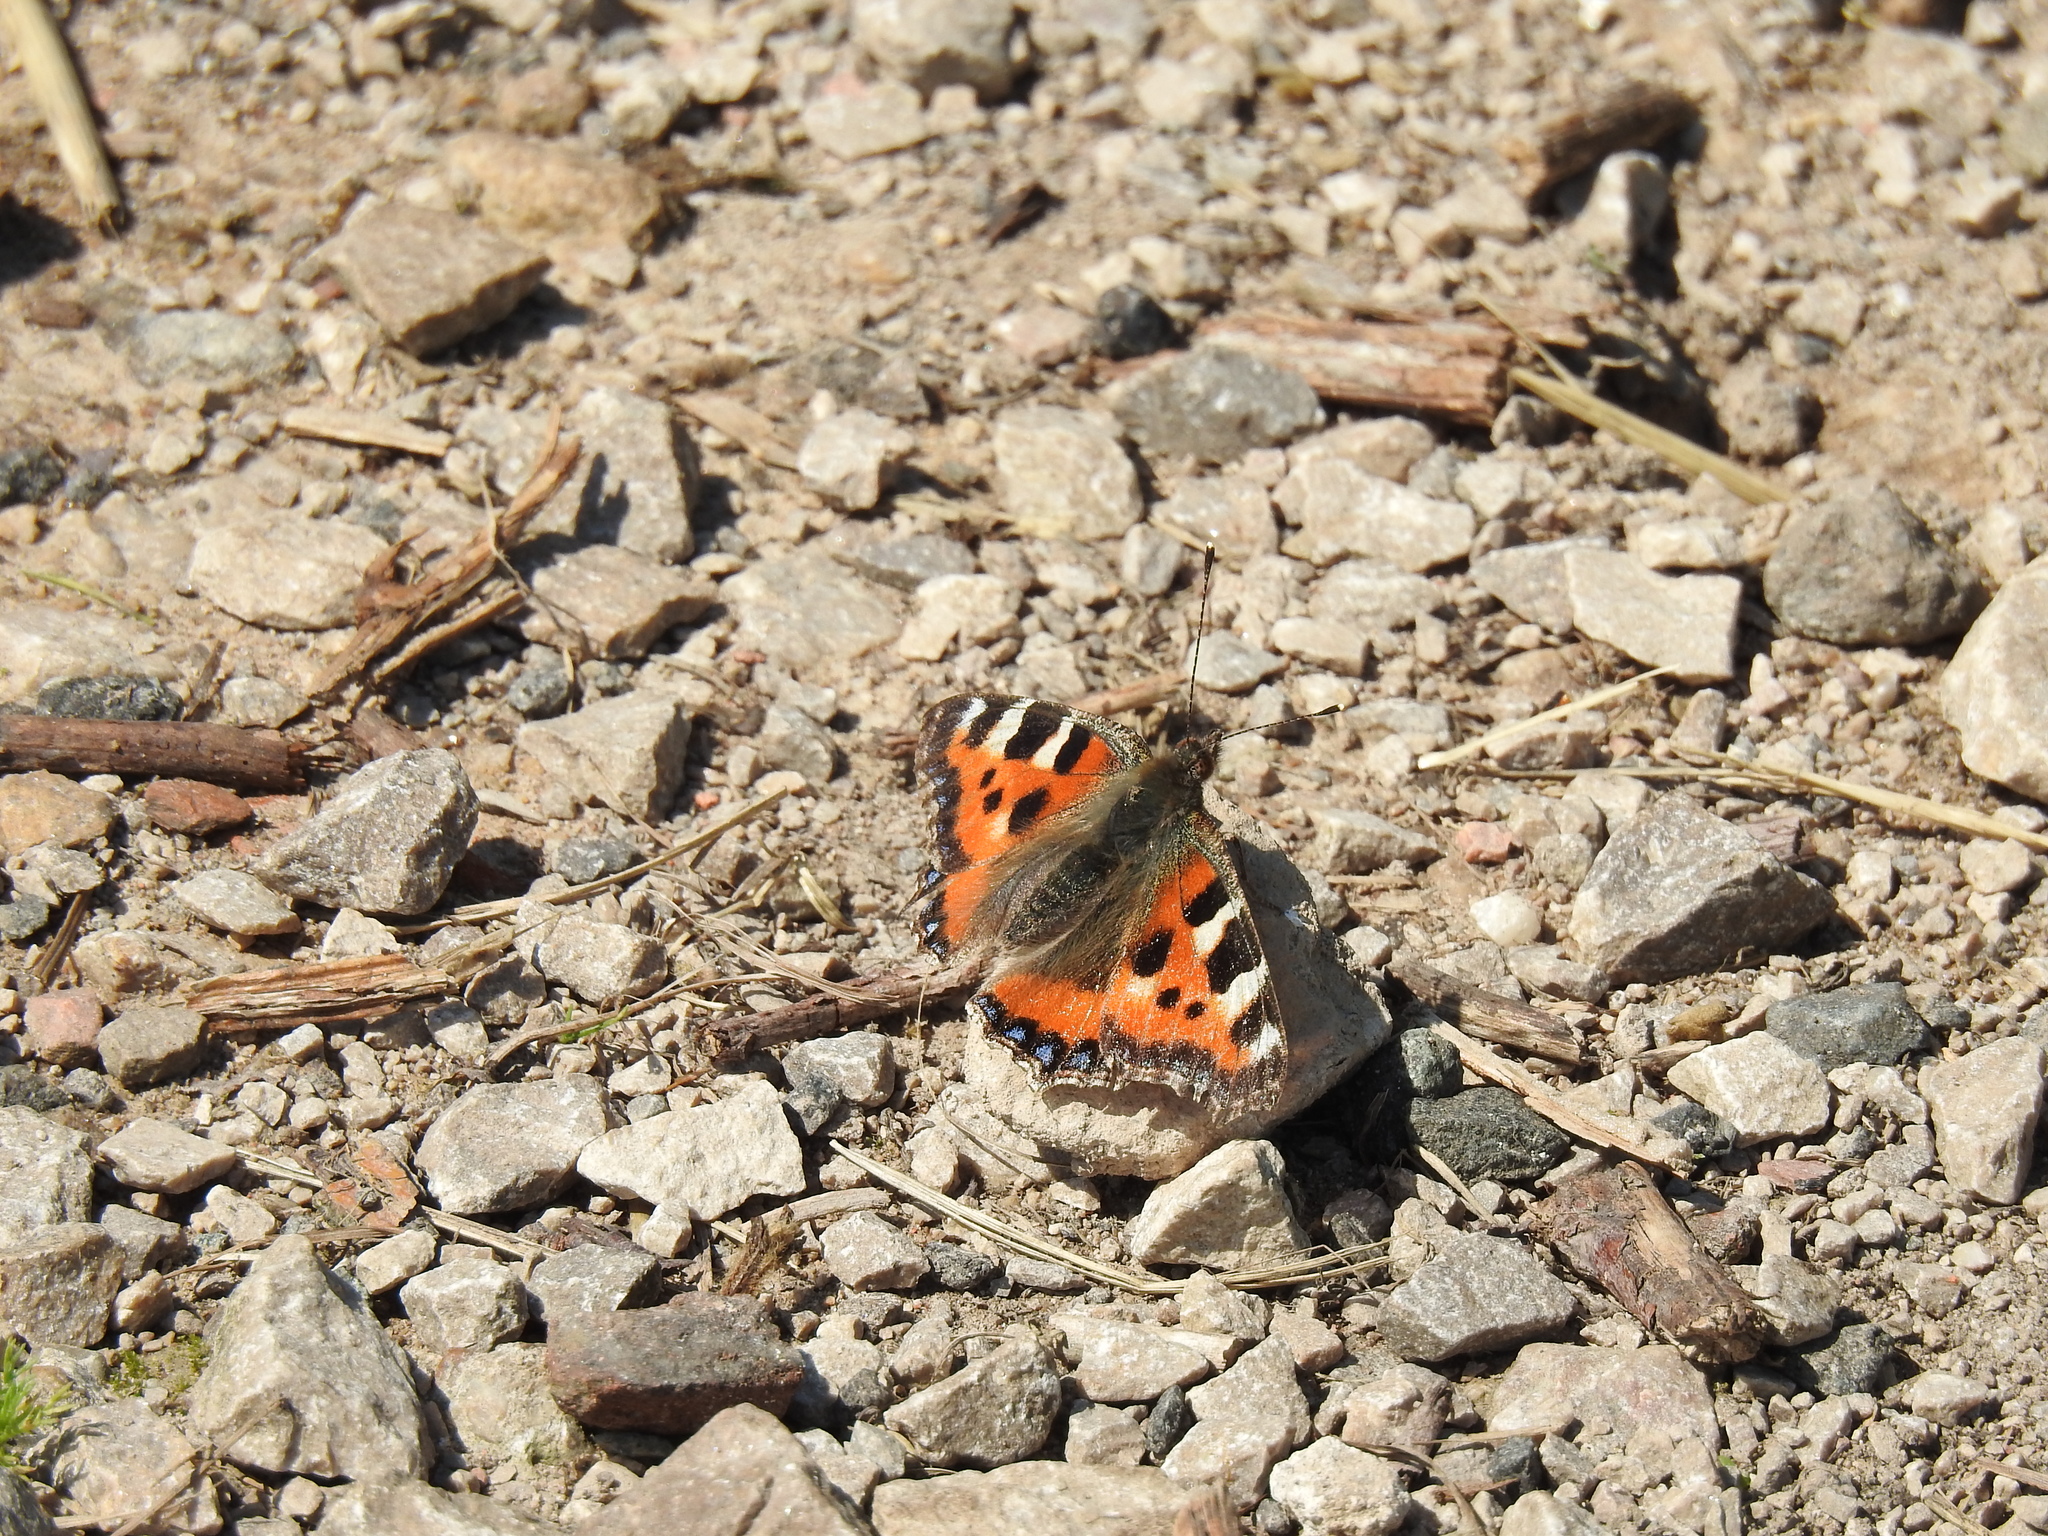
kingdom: Animalia
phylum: Arthropoda
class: Insecta
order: Lepidoptera
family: Nymphalidae
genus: Aglais
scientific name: Aglais urticae
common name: Small tortoiseshell
